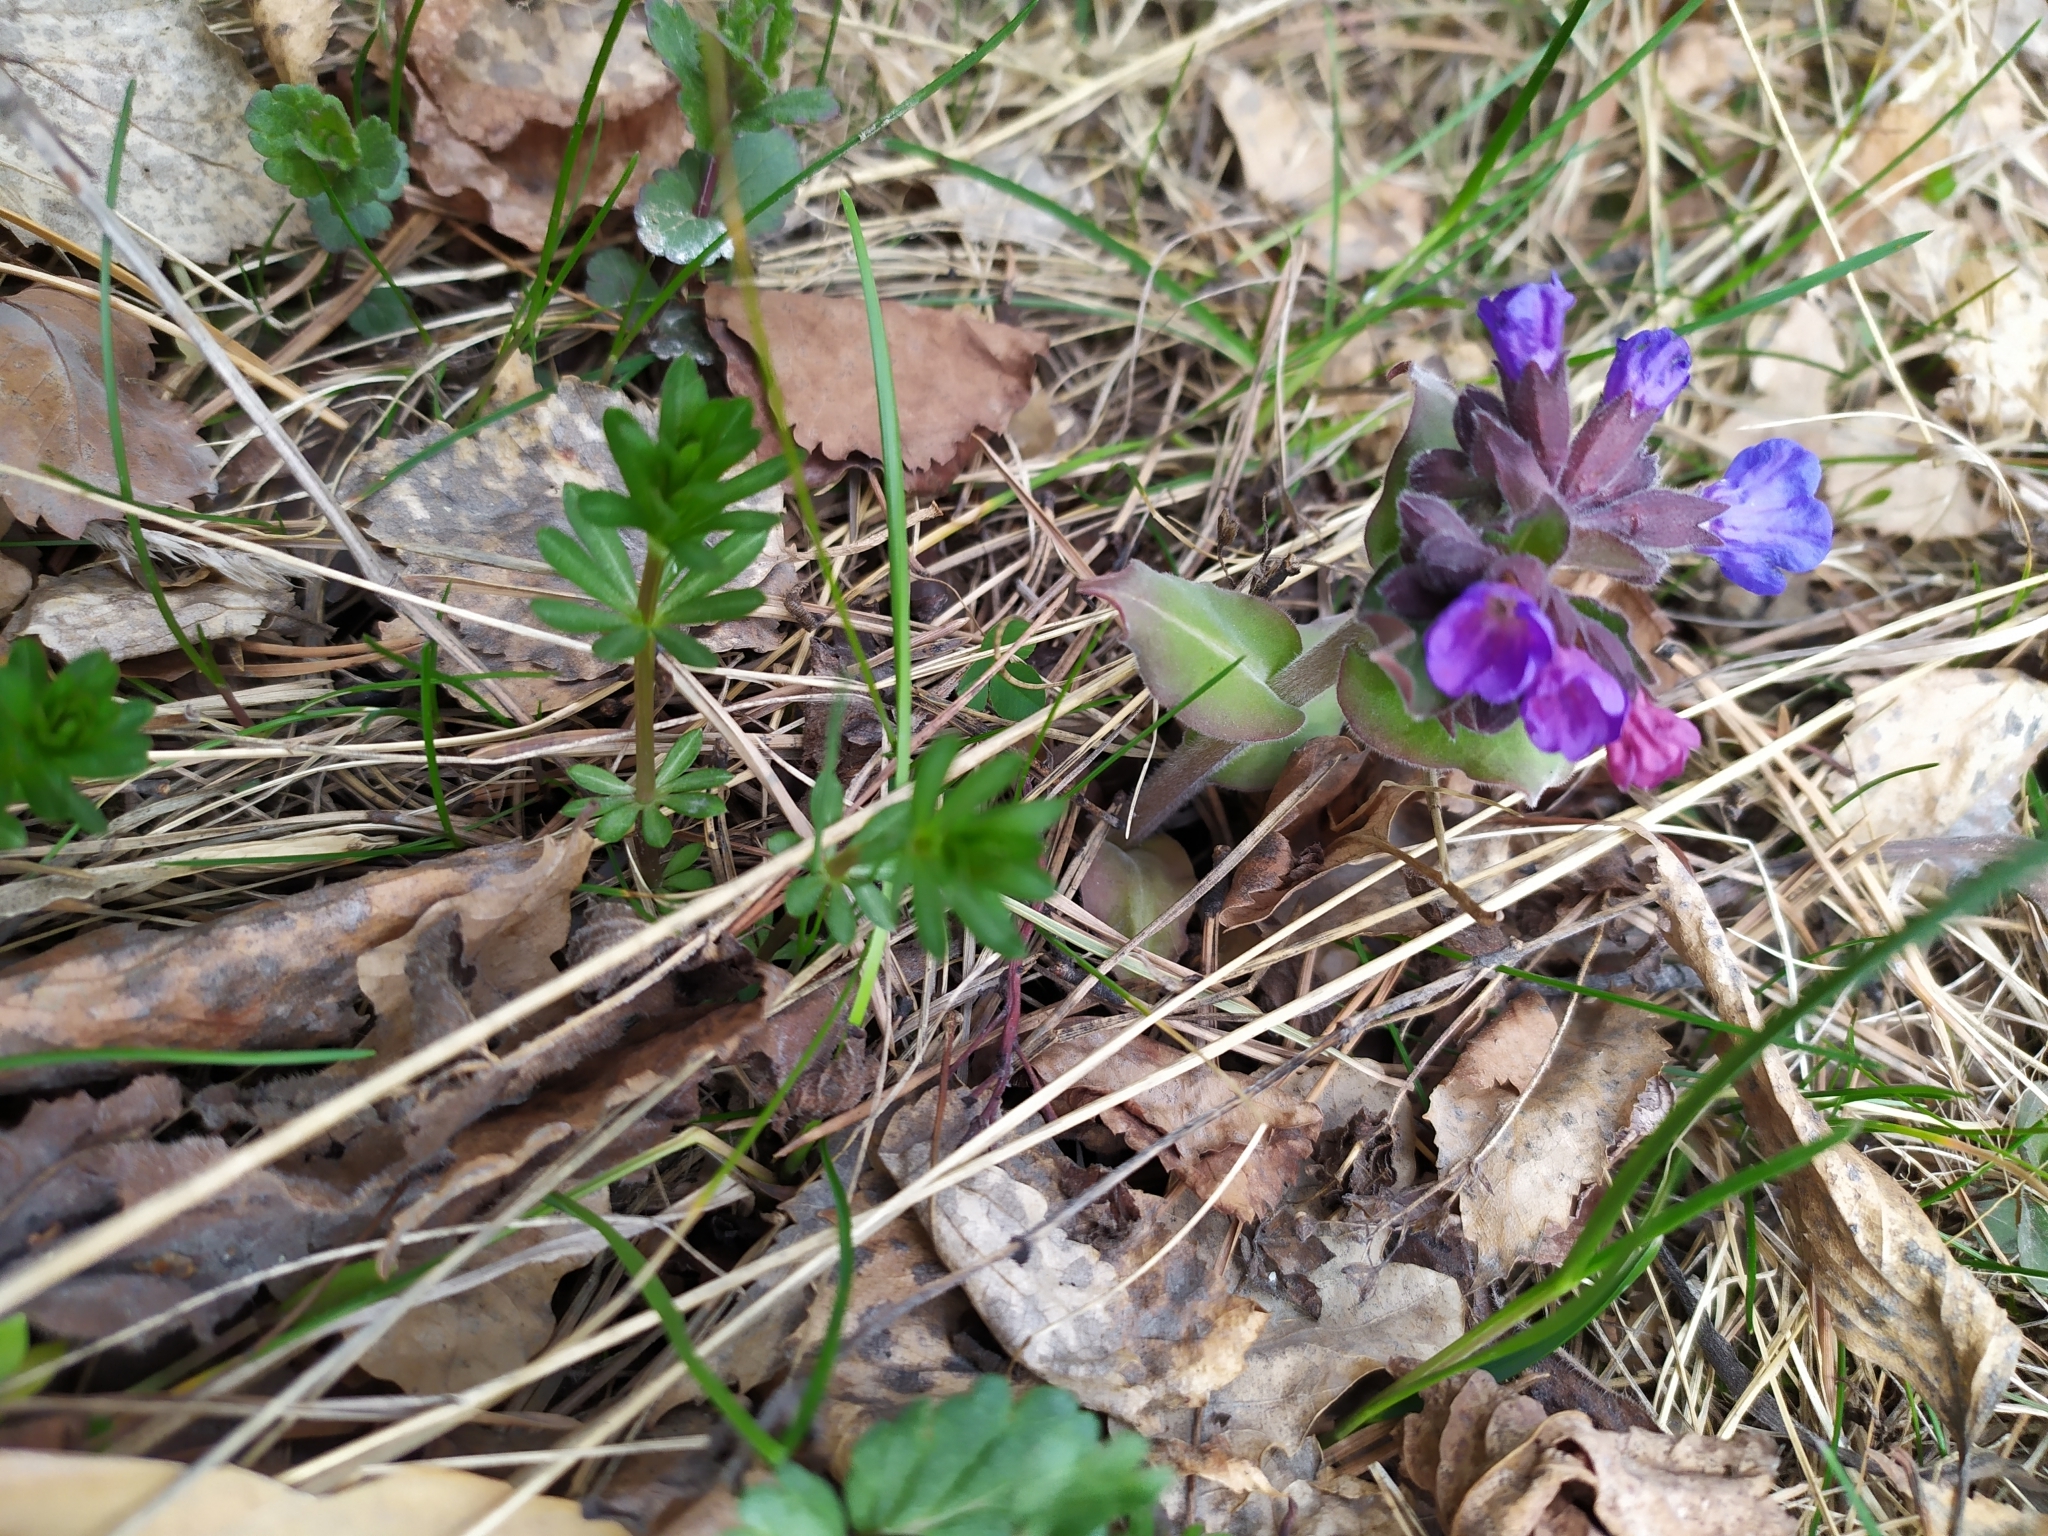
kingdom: Plantae
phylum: Tracheophyta
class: Magnoliopsida
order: Boraginales
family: Boraginaceae
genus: Pulmonaria
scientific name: Pulmonaria mollis
